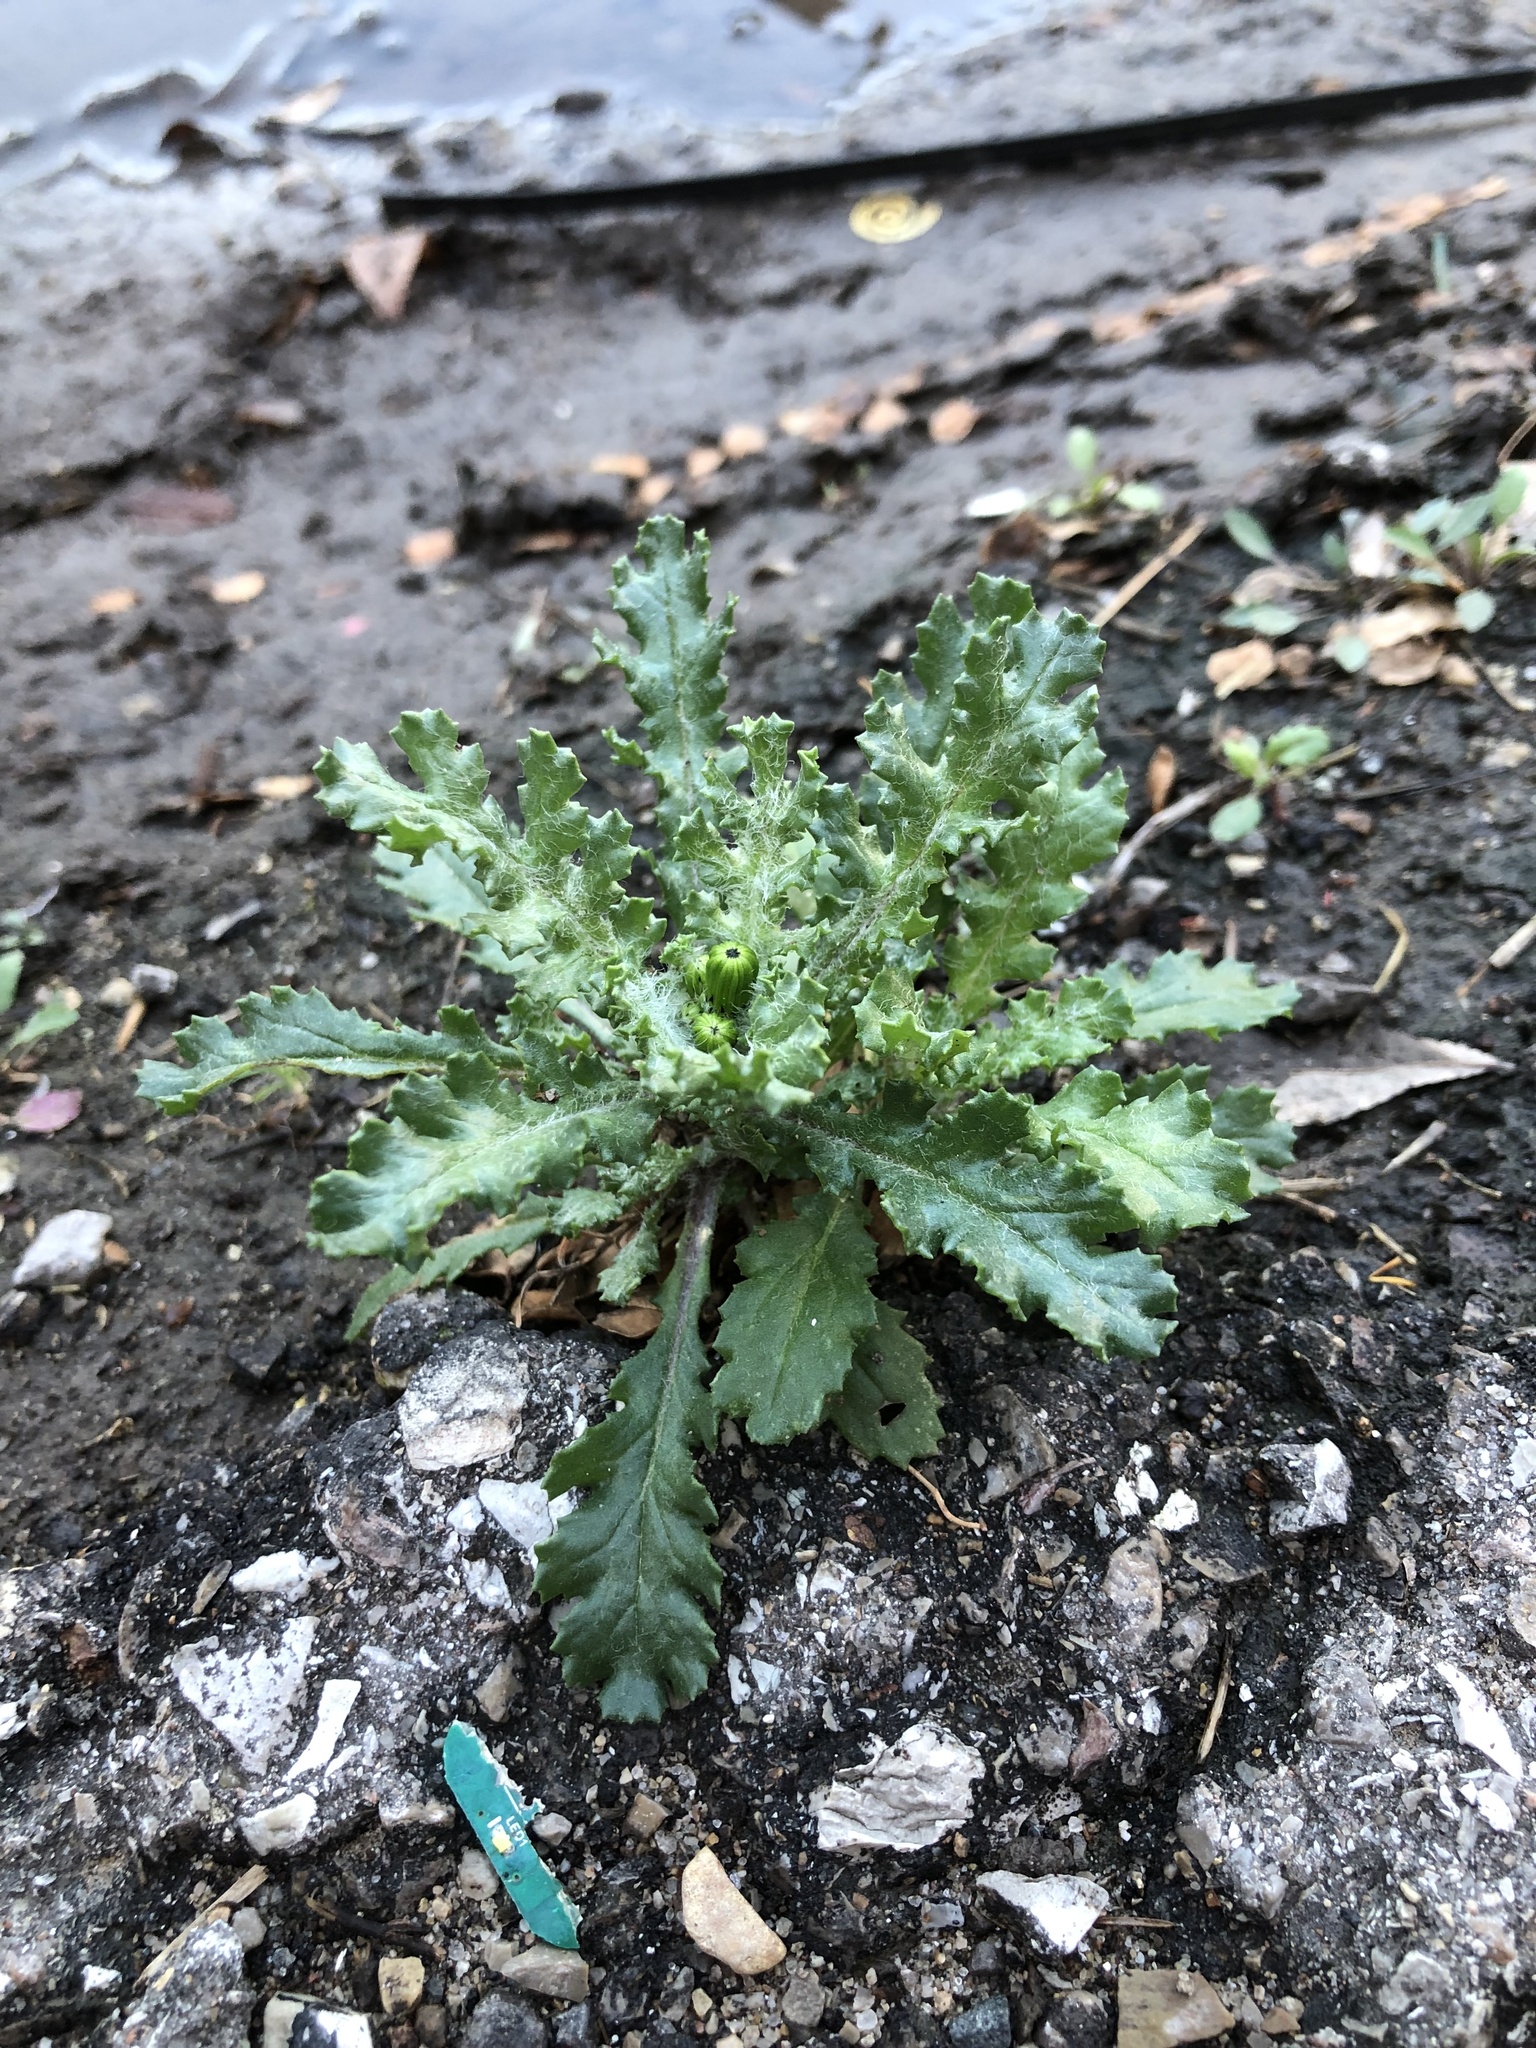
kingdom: Plantae
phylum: Tracheophyta
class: Magnoliopsida
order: Asterales
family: Asteraceae
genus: Senecio
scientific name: Senecio vulgaris
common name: Old-man-in-the-spring
